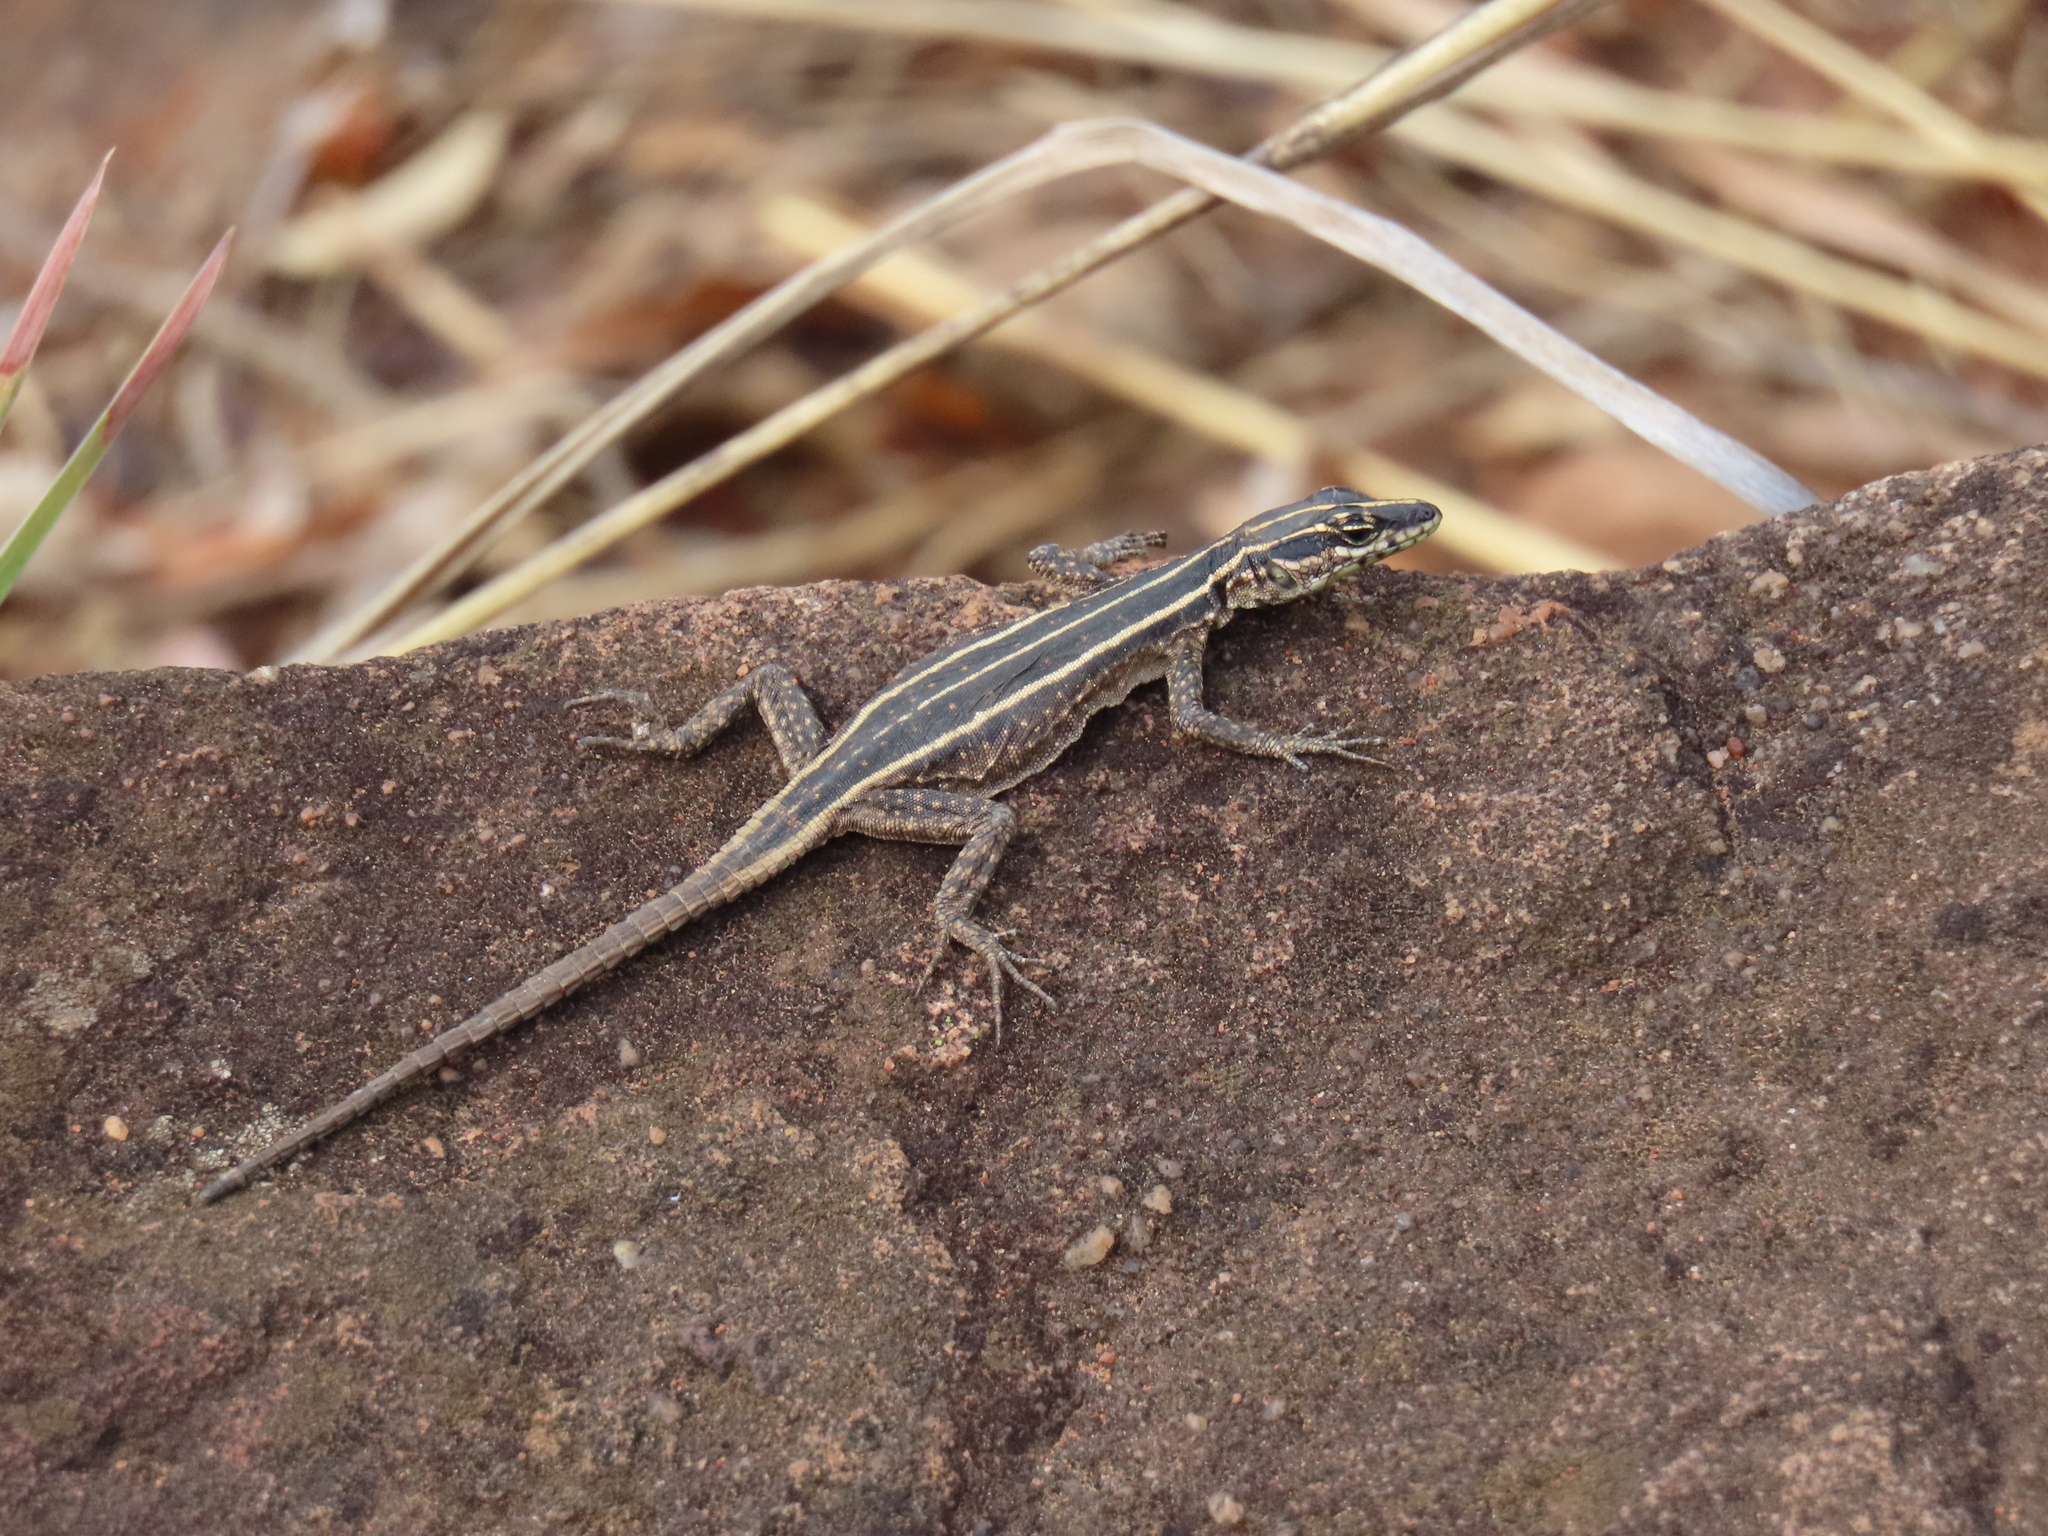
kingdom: Animalia
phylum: Chordata
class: Squamata
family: Cordylidae
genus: Platysaurus
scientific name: Platysaurus orientalis
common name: Sekhukune flat lizard
